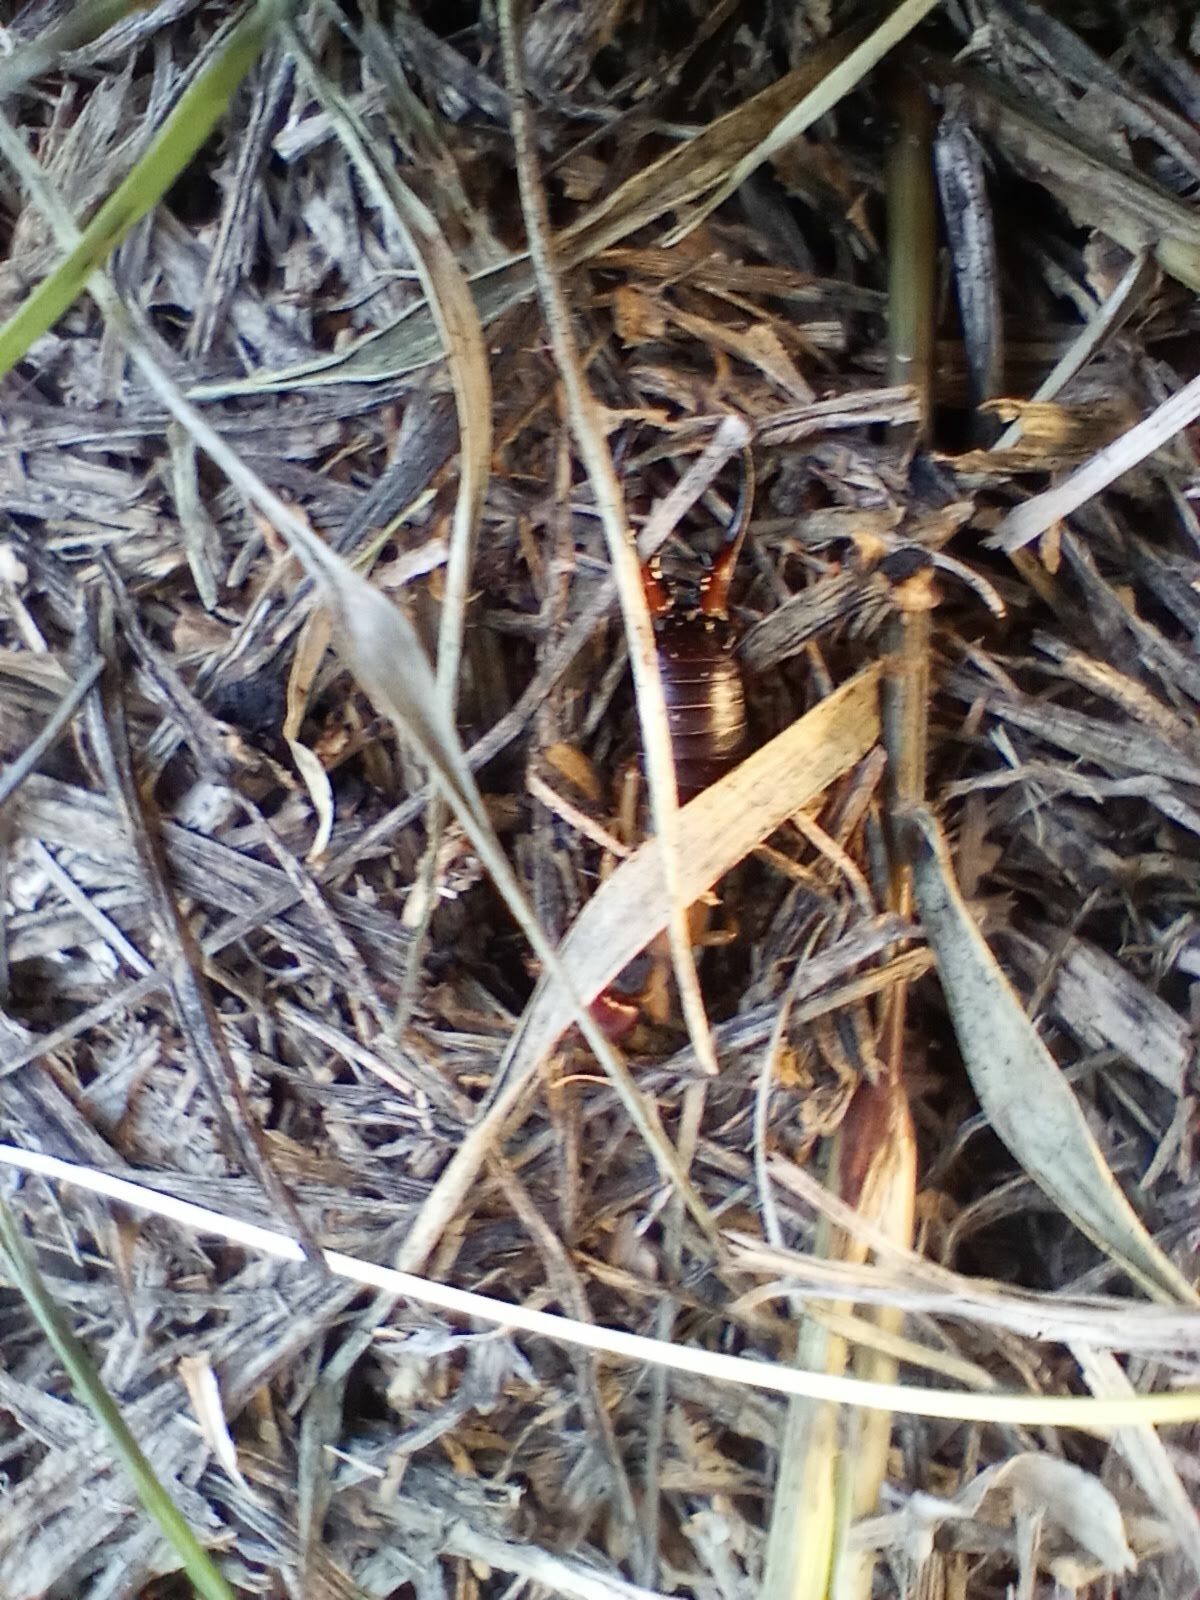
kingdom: Animalia
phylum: Arthropoda
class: Insecta
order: Dermaptera
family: Forficulidae
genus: Forficula
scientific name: Forficula
